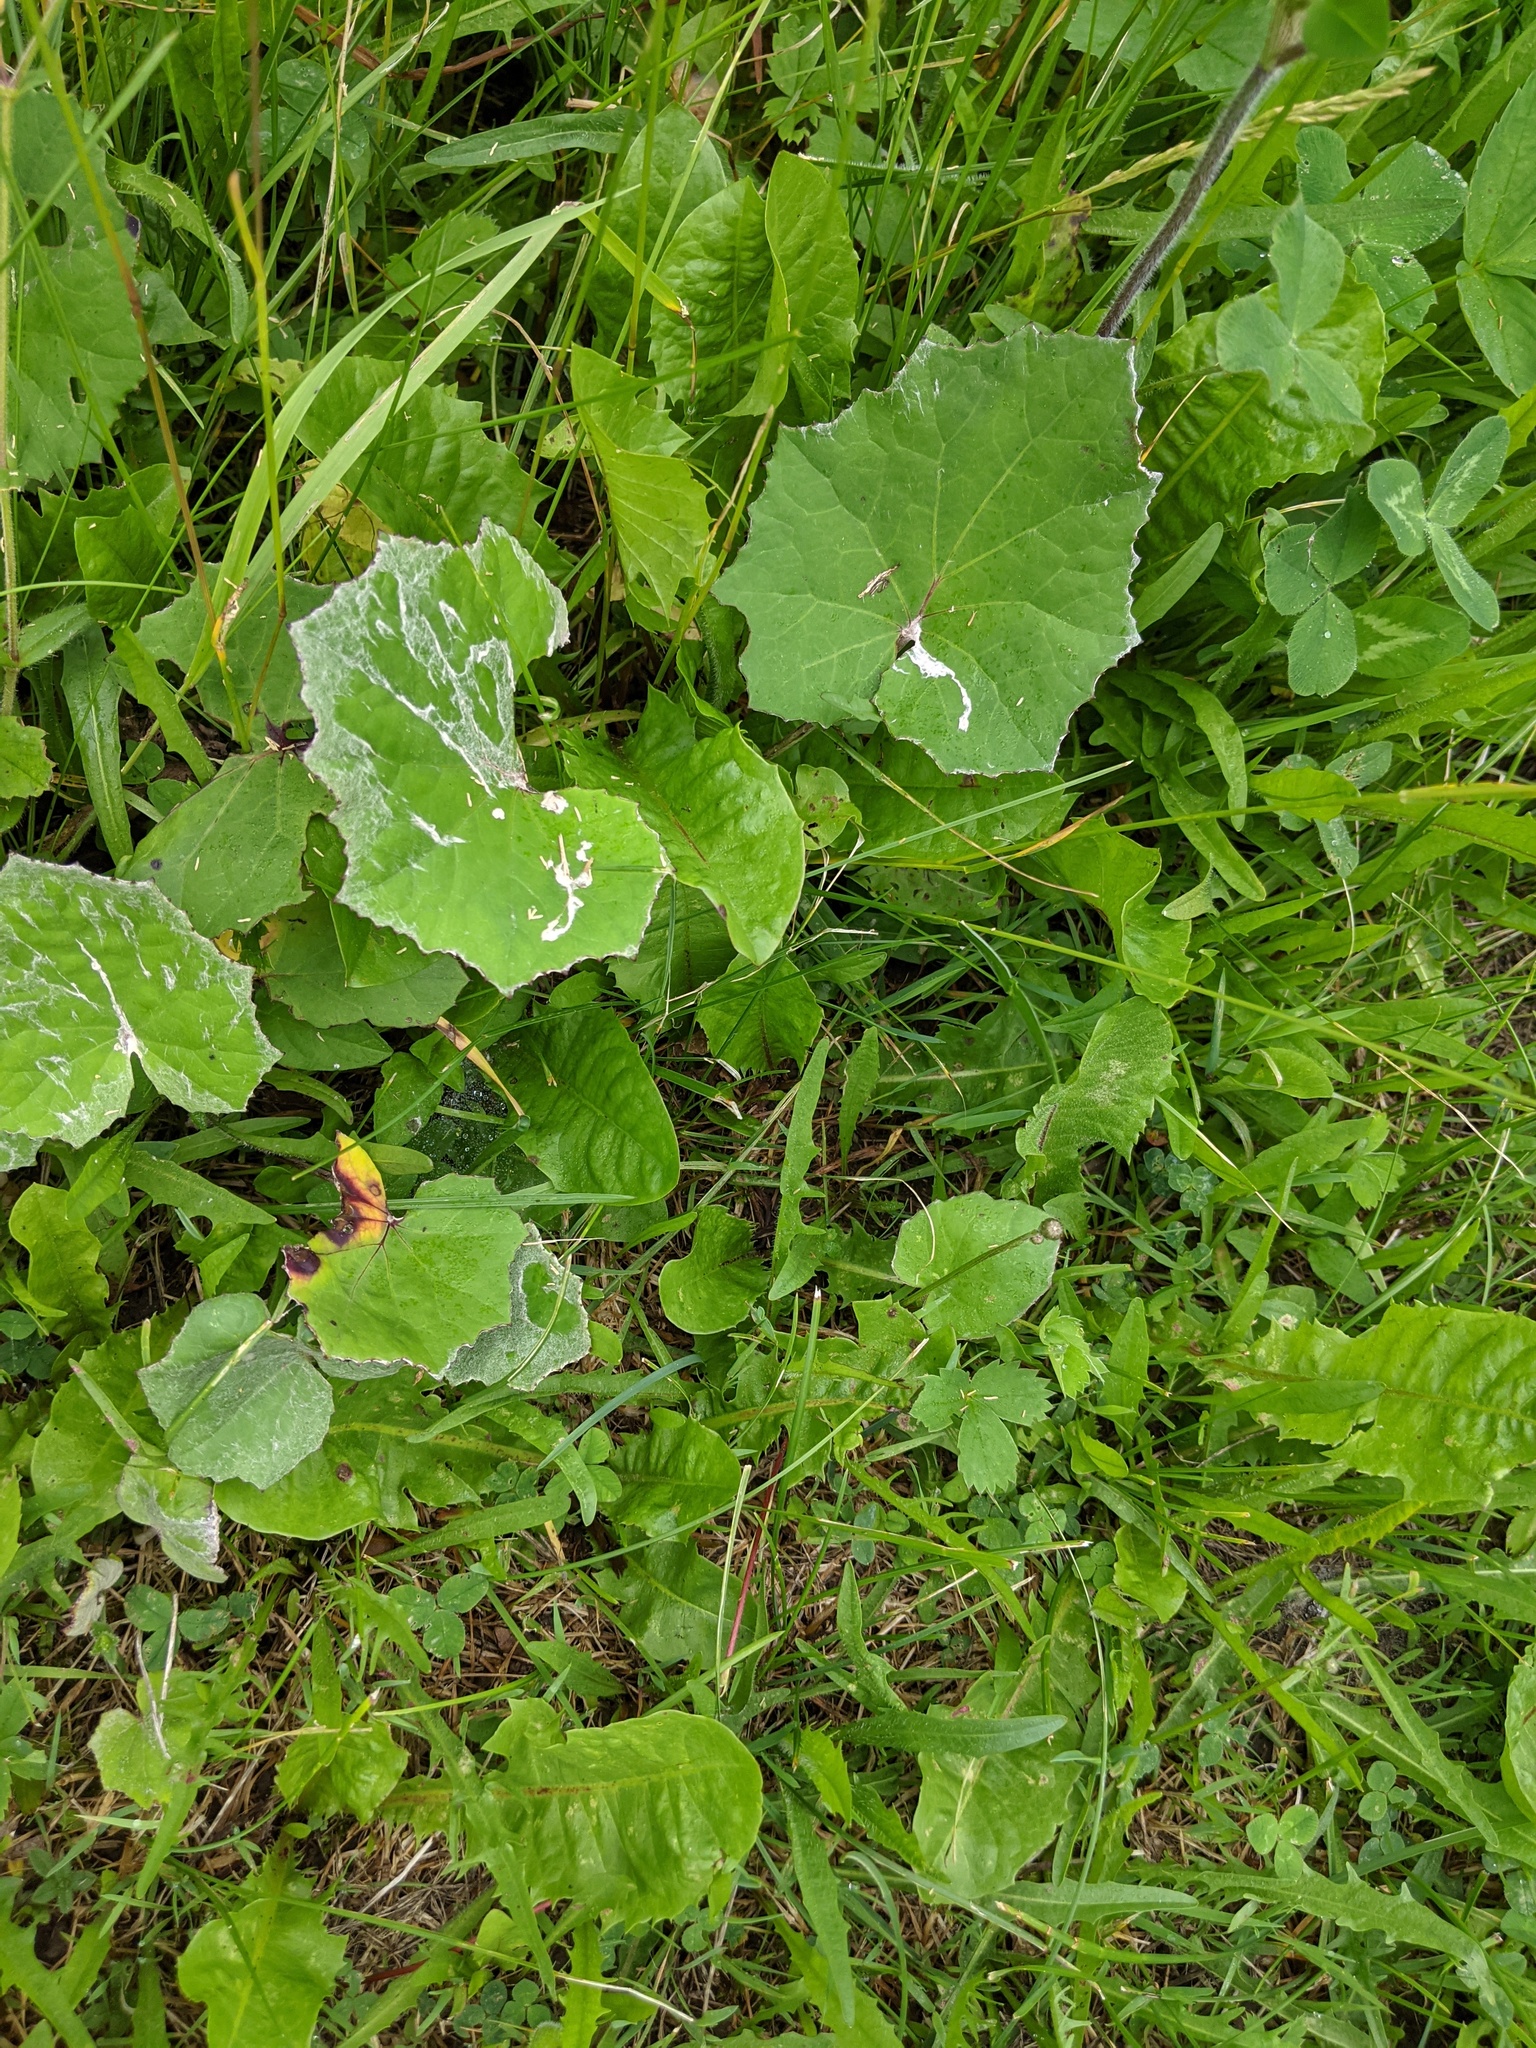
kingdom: Plantae
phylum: Tracheophyta
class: Magnoliopsida
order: Asterales
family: Asteraceae
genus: Tussilago
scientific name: Tussilago farfara
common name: Coltsfoot
